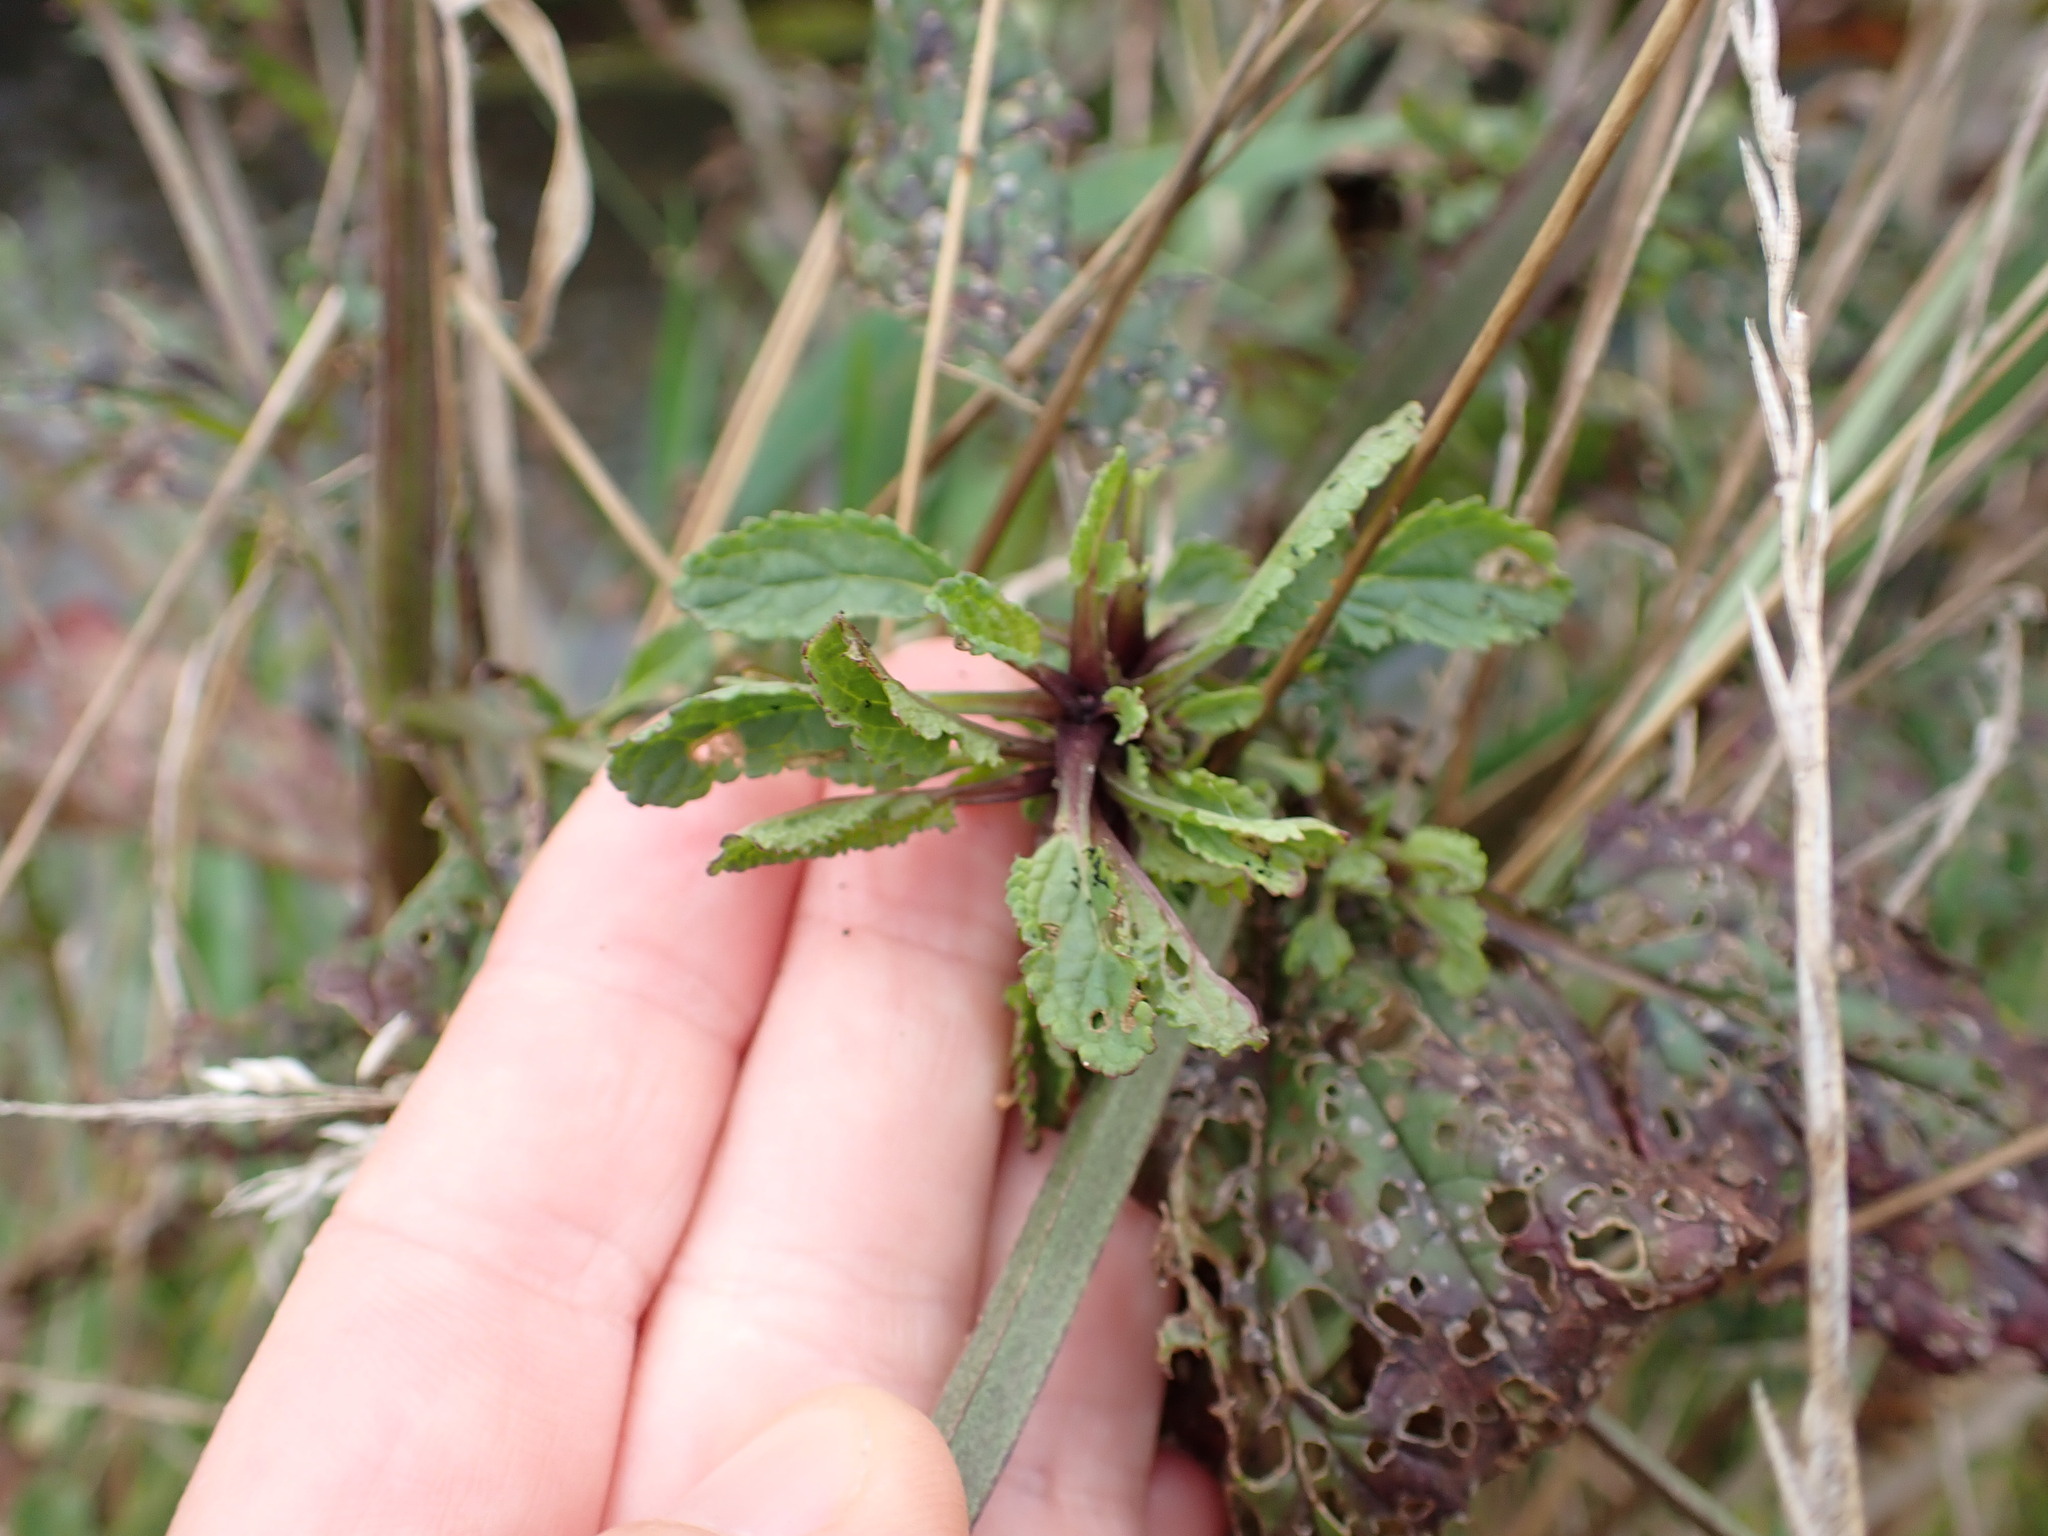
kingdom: Plantae
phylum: Tracheophyta
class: Magnoliopsida
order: Lamiales
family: Scrophulariaceae
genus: Scrophularia
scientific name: Scrophularia auriculata
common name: Water betony
